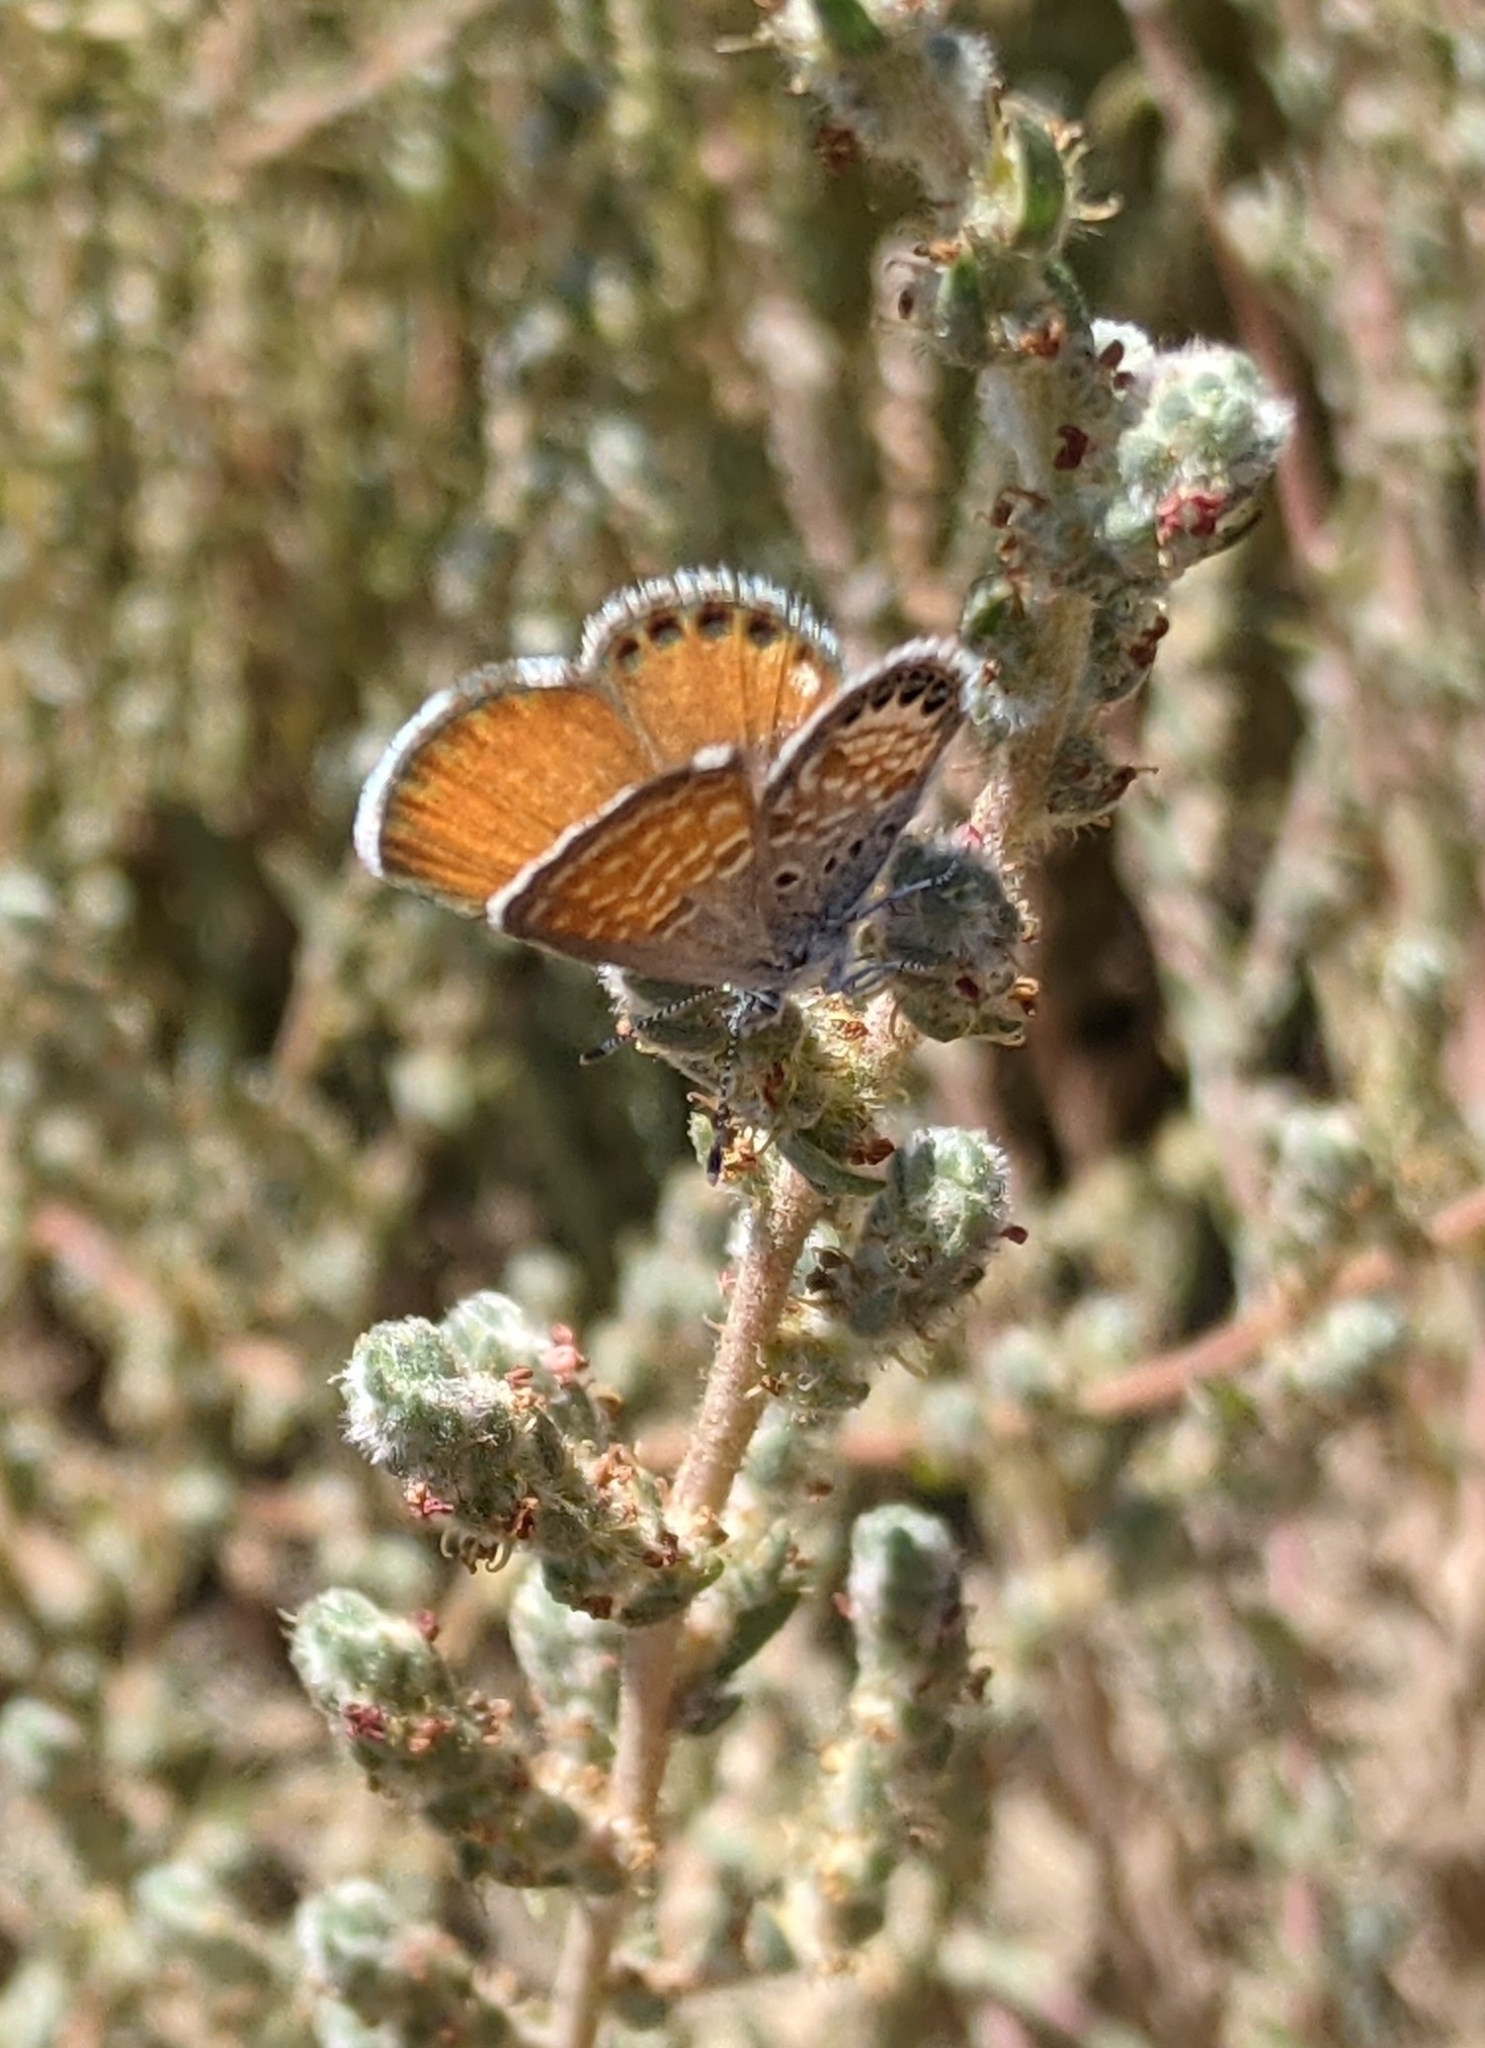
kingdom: Animalia
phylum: Arthropoda
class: Insecta
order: Lepidoptera
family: Lycaenidae
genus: Brephidium
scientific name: Brephidium exilis
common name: Pygmy blue
